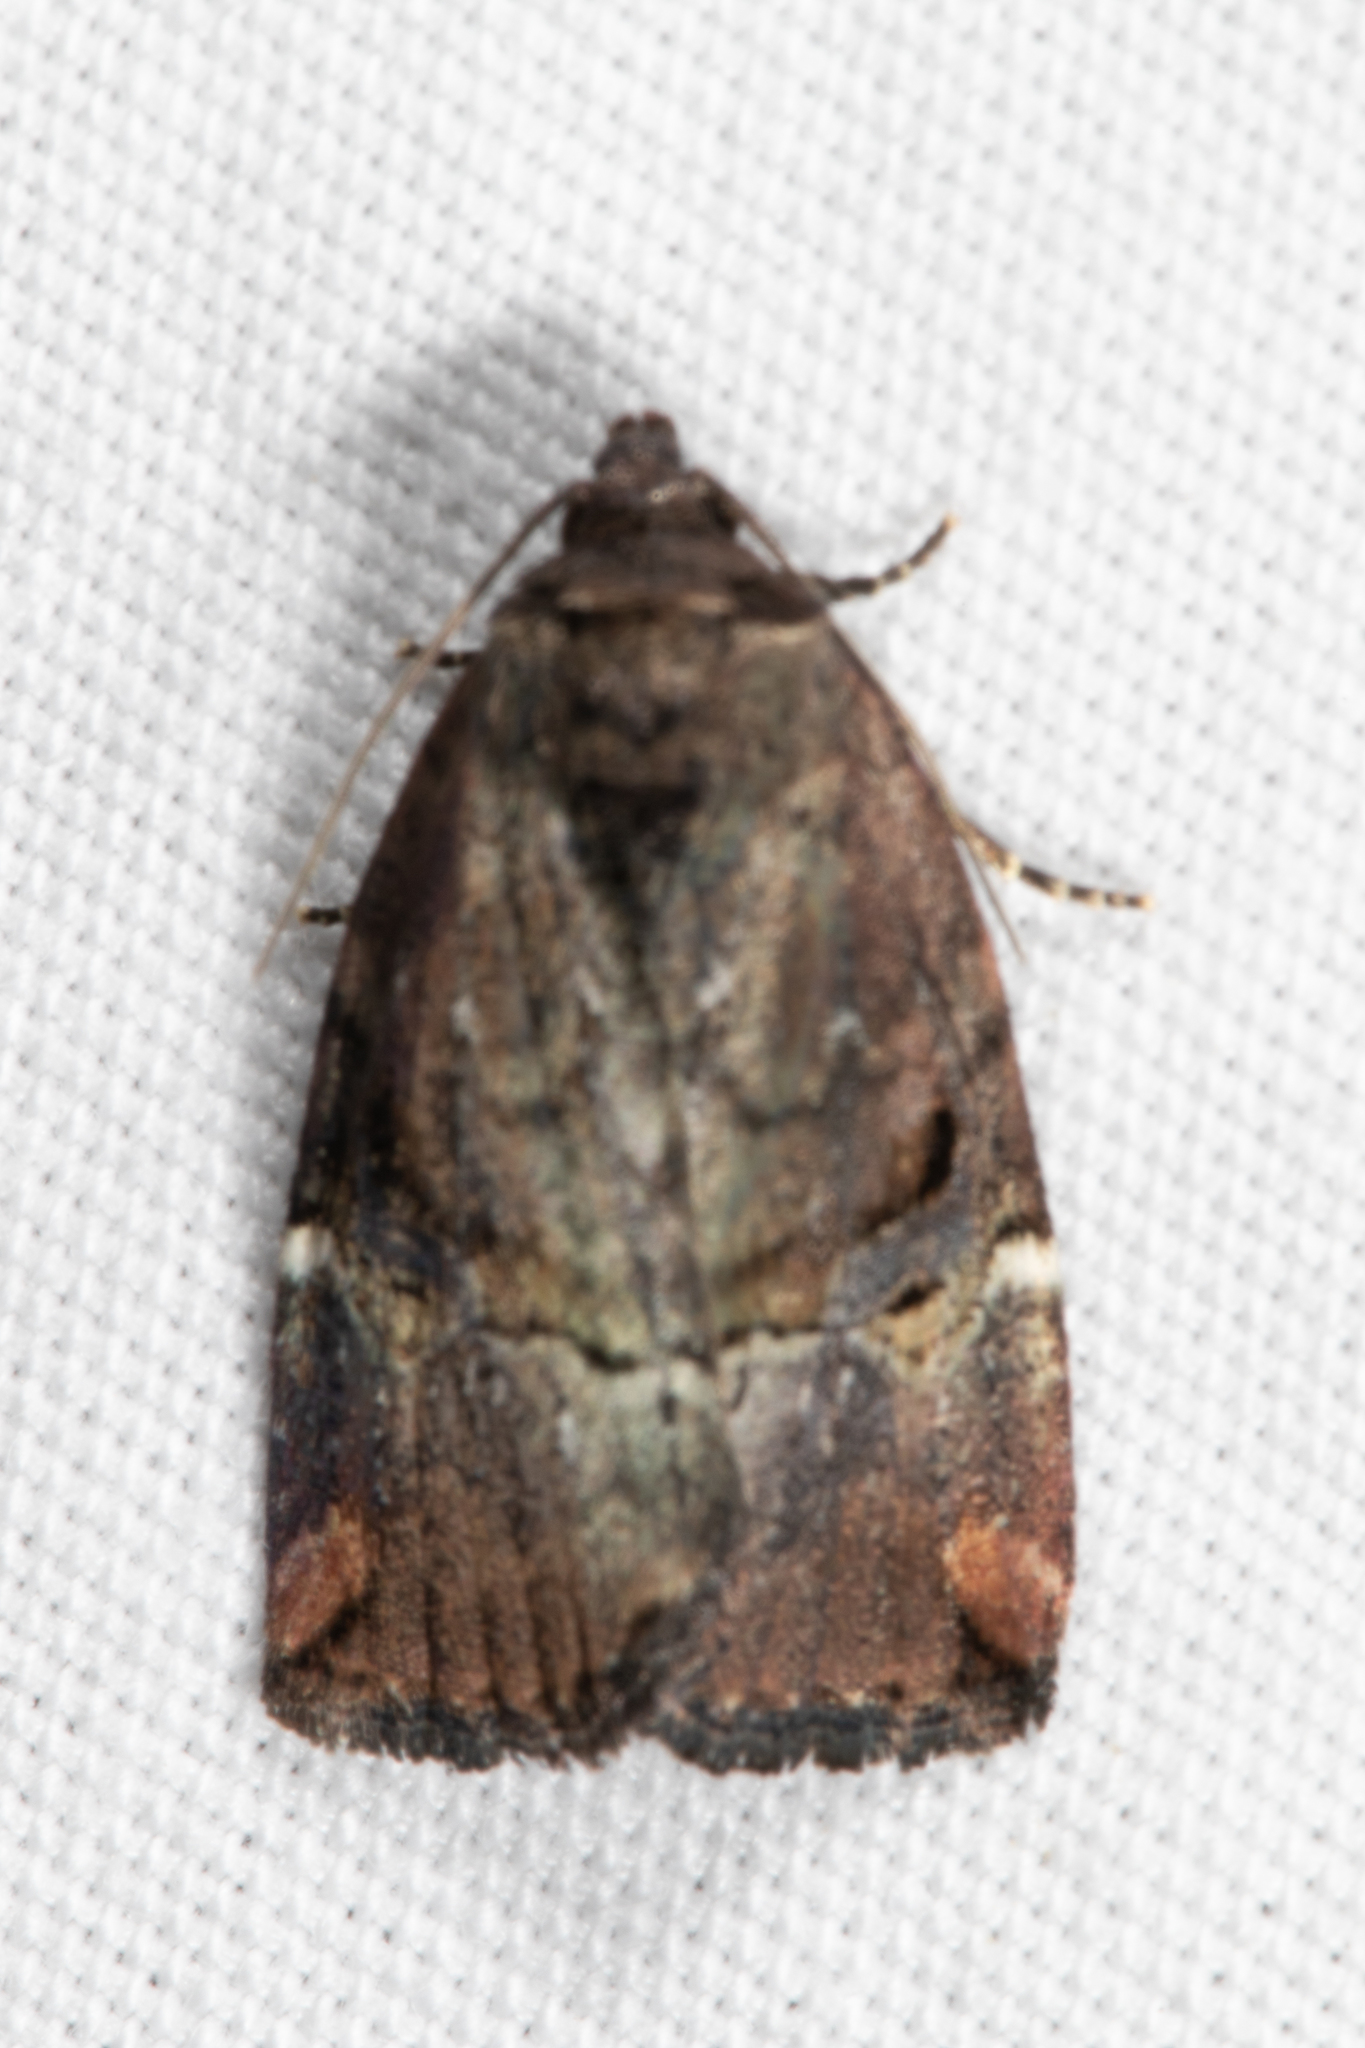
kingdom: Animalia
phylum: Arthropoda
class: Insecta
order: Lepidoptera
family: Noctuidae
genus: Elaphria
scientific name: Elaphria versicolor
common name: Fir harlequin
